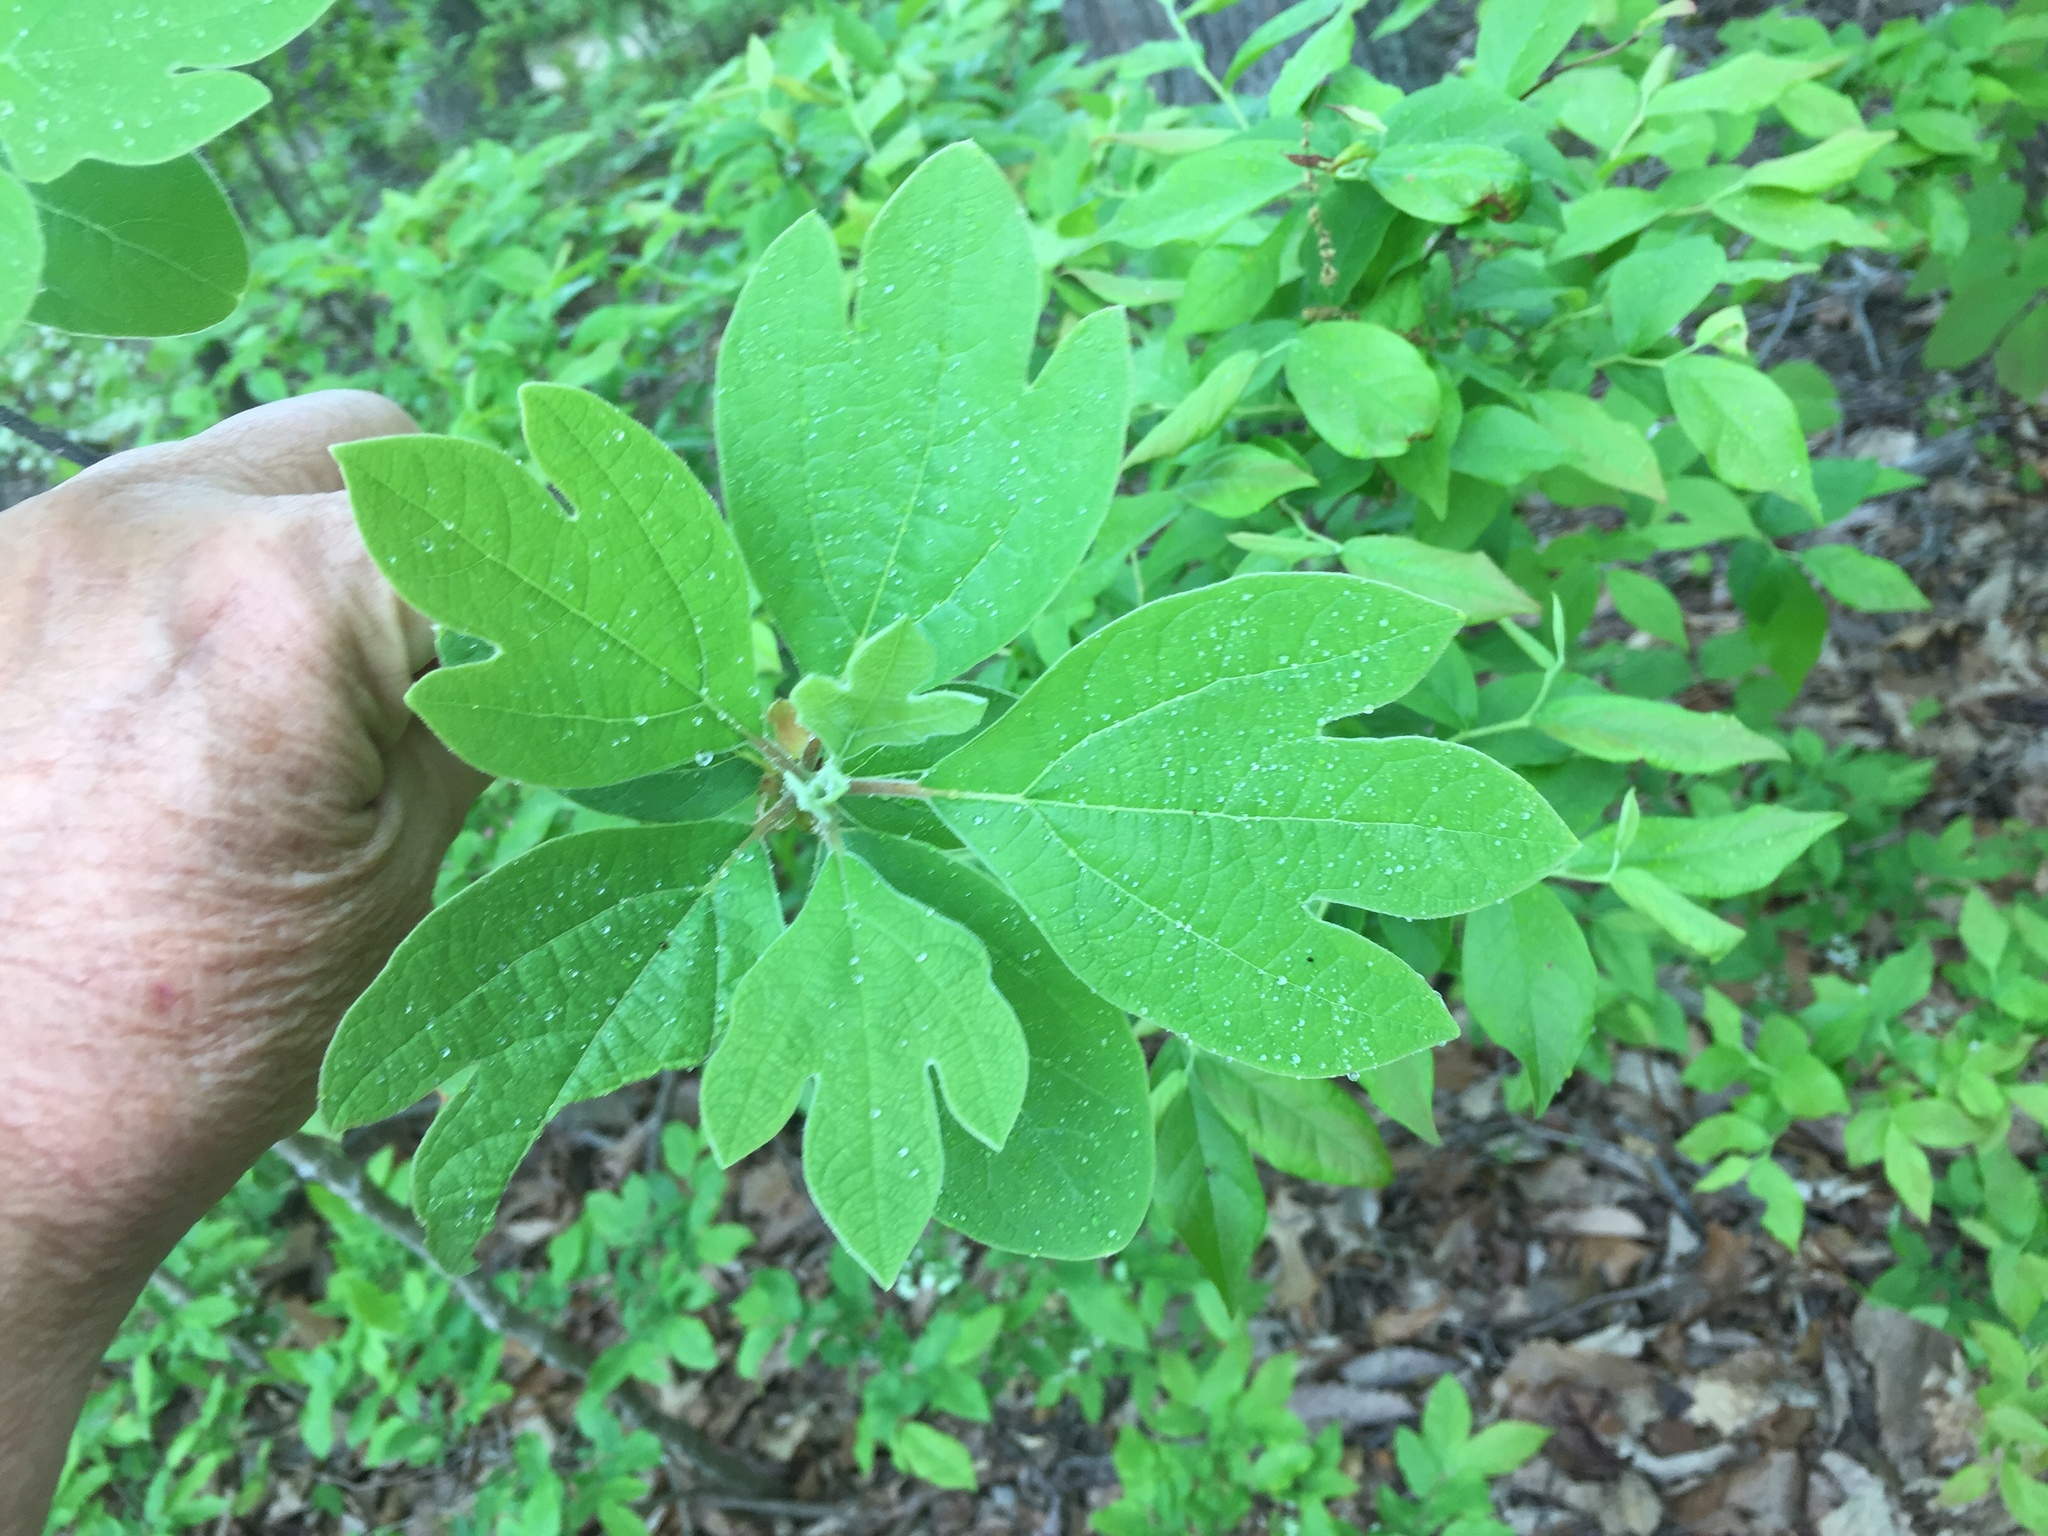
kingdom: Plantae
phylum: Tracheophyta
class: Magnoliopsida
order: Laurales
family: Lauraceae
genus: Sassafras
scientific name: Sassafras albidum
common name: Sassafras
